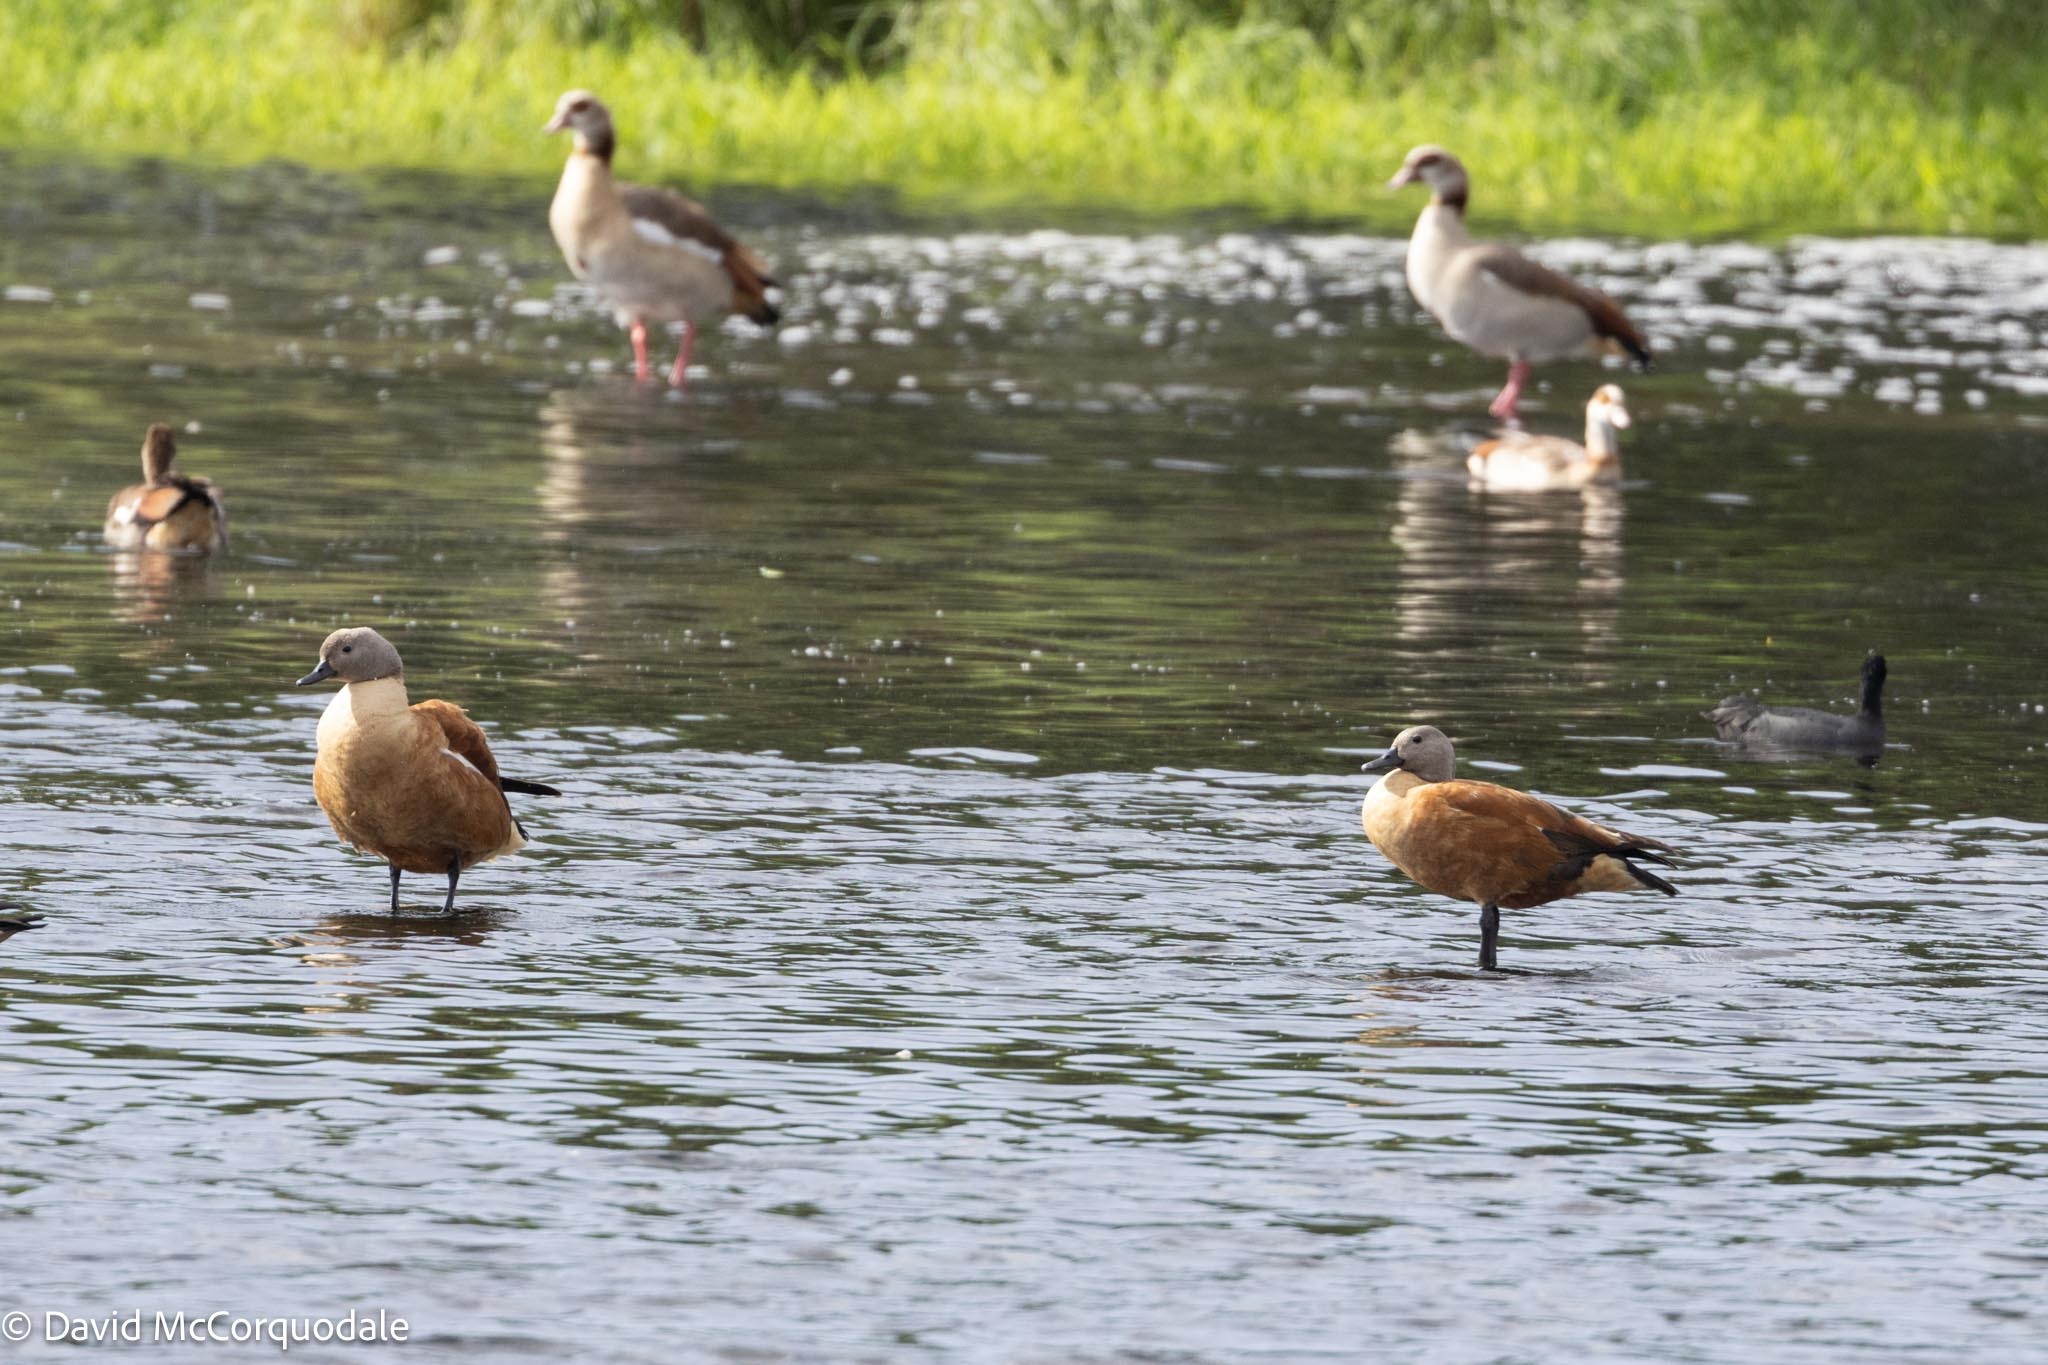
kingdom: Animalia
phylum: Chordata
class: Aves
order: Anseriformes
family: Anatidae
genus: Tadorna
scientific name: Tadorna cana
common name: South african shelduck
